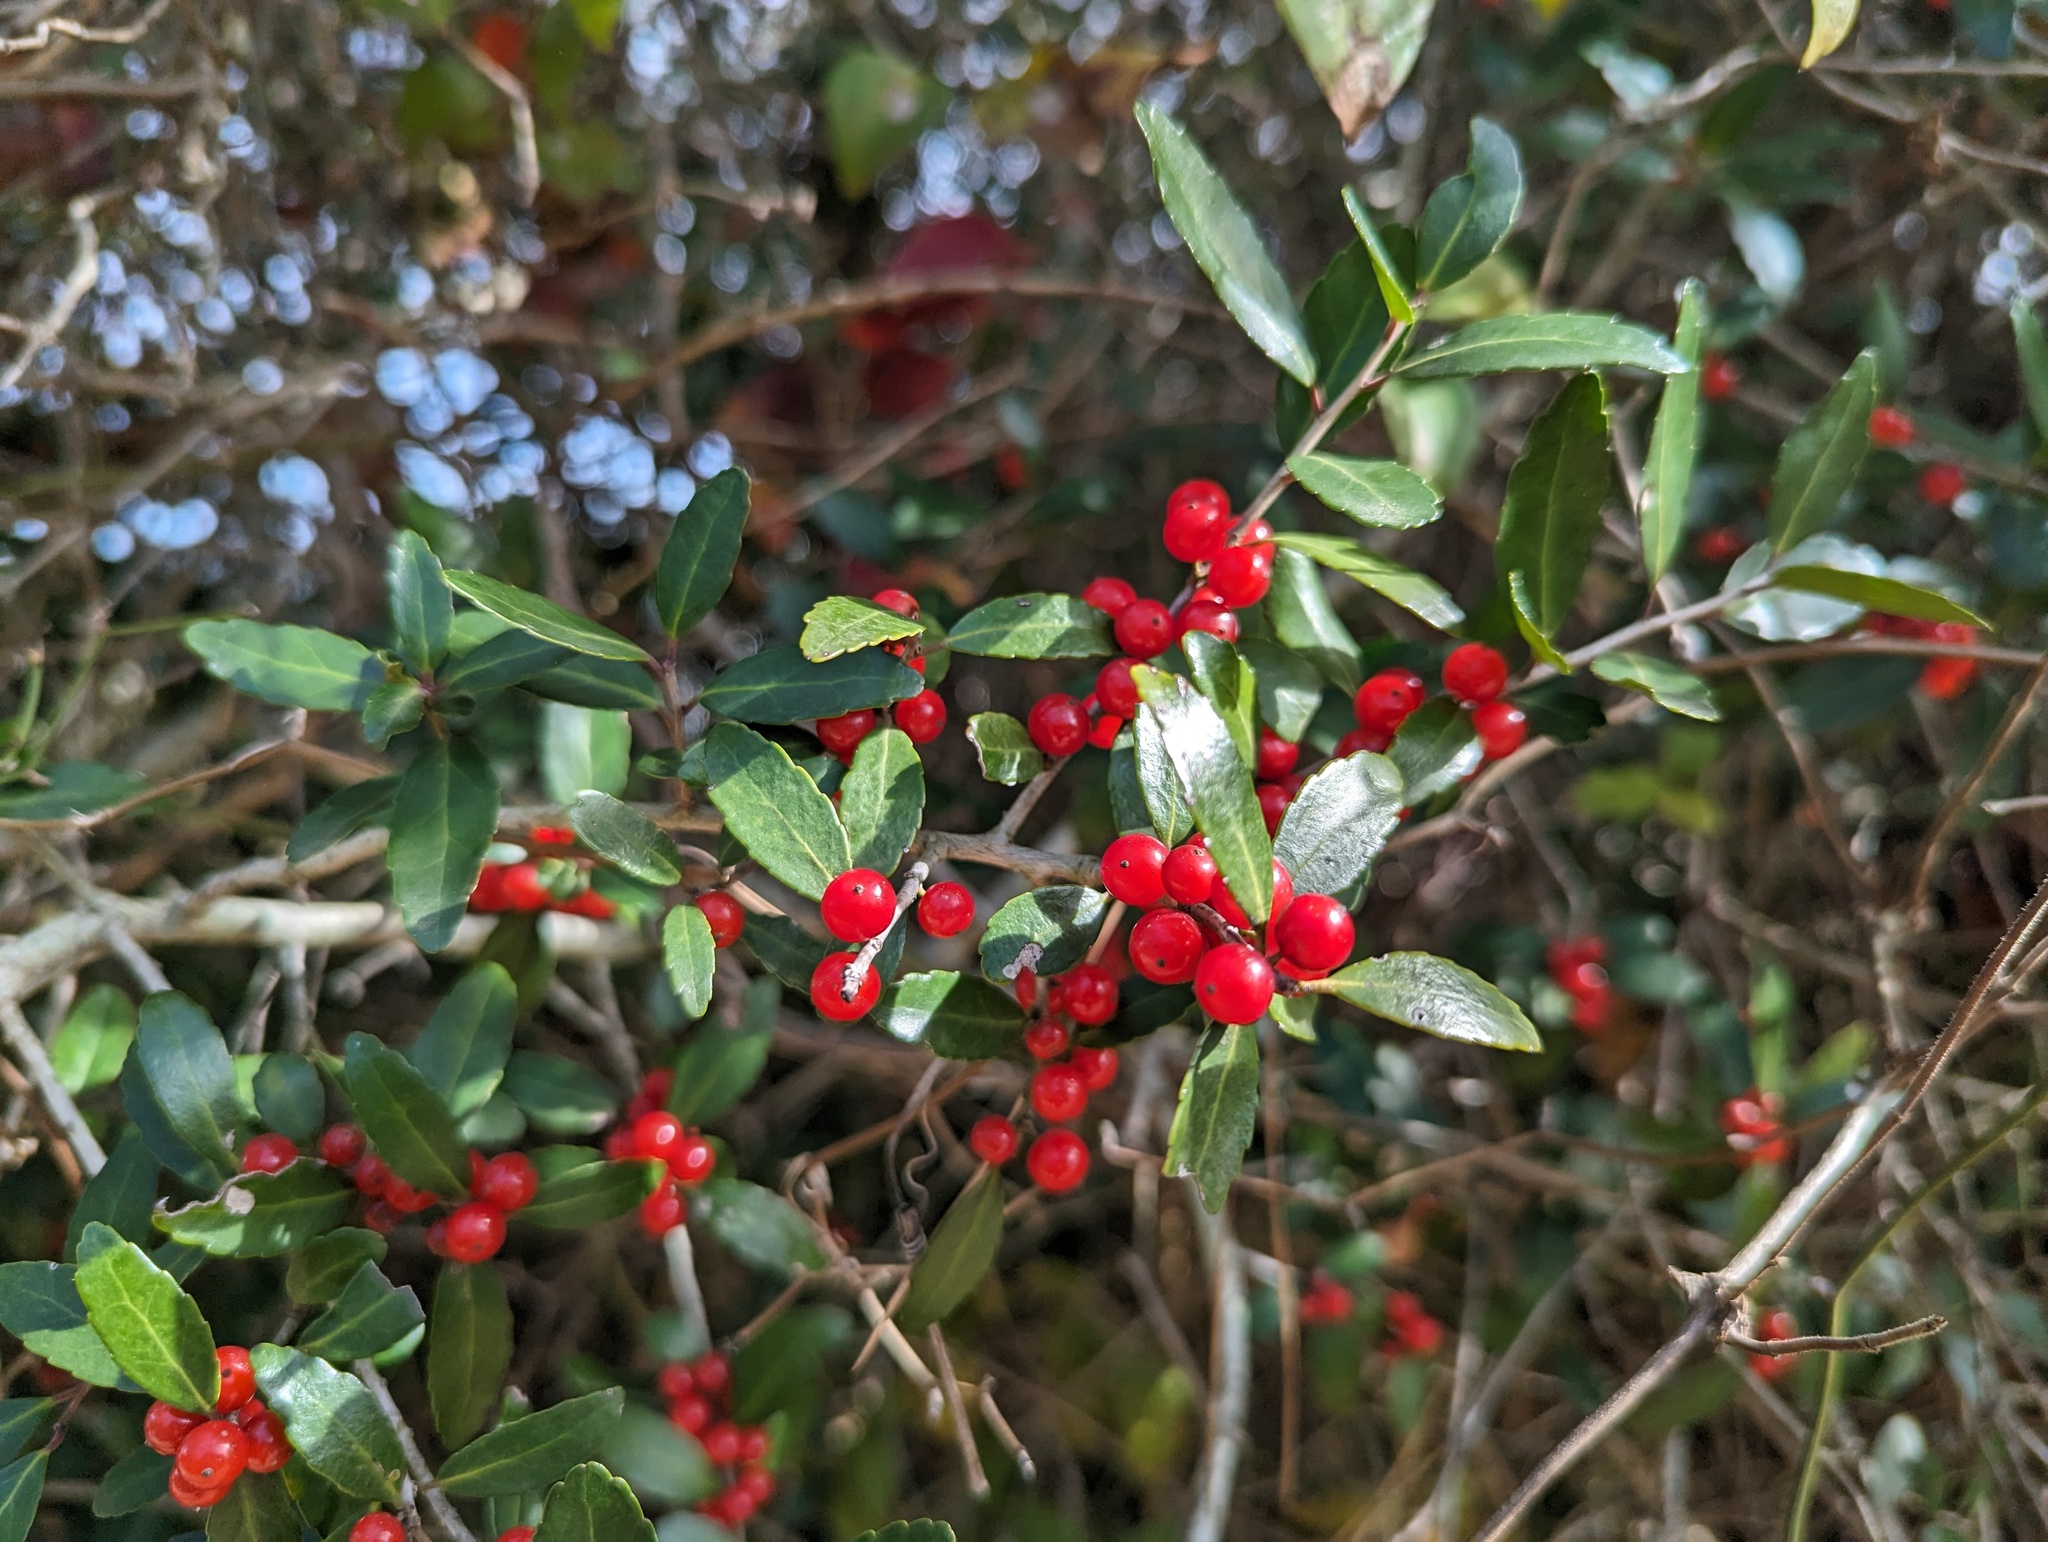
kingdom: Plantae
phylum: Tracheophyta
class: Magnoliopsida
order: Aquifoliales
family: Aquifoliaceae
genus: Ilex
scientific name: Ilex vomitoria
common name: Yaupon holly
